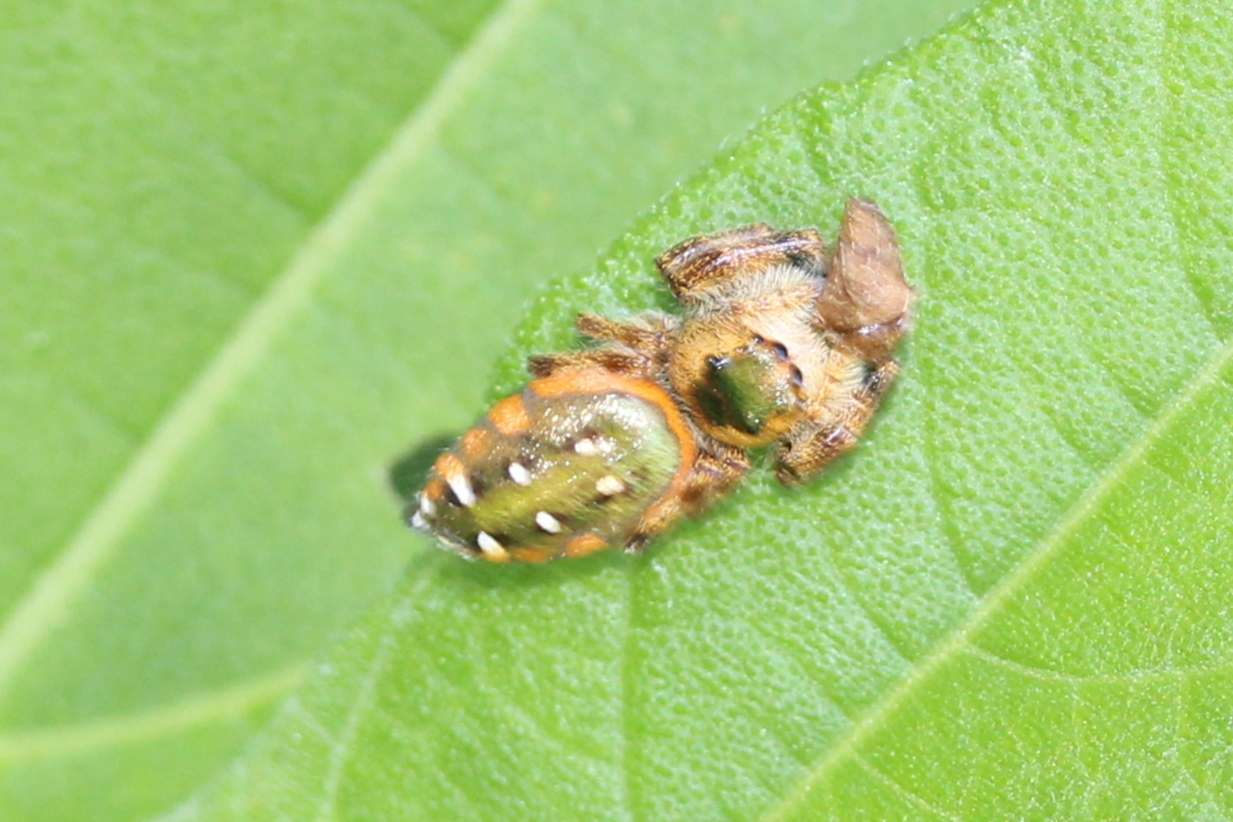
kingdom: Animalia
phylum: Arthropoda
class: Arachnida
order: Araneae
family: Salticidae
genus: Paraphidippus
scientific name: Paraphidippus aurantius
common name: Jumping spiders
